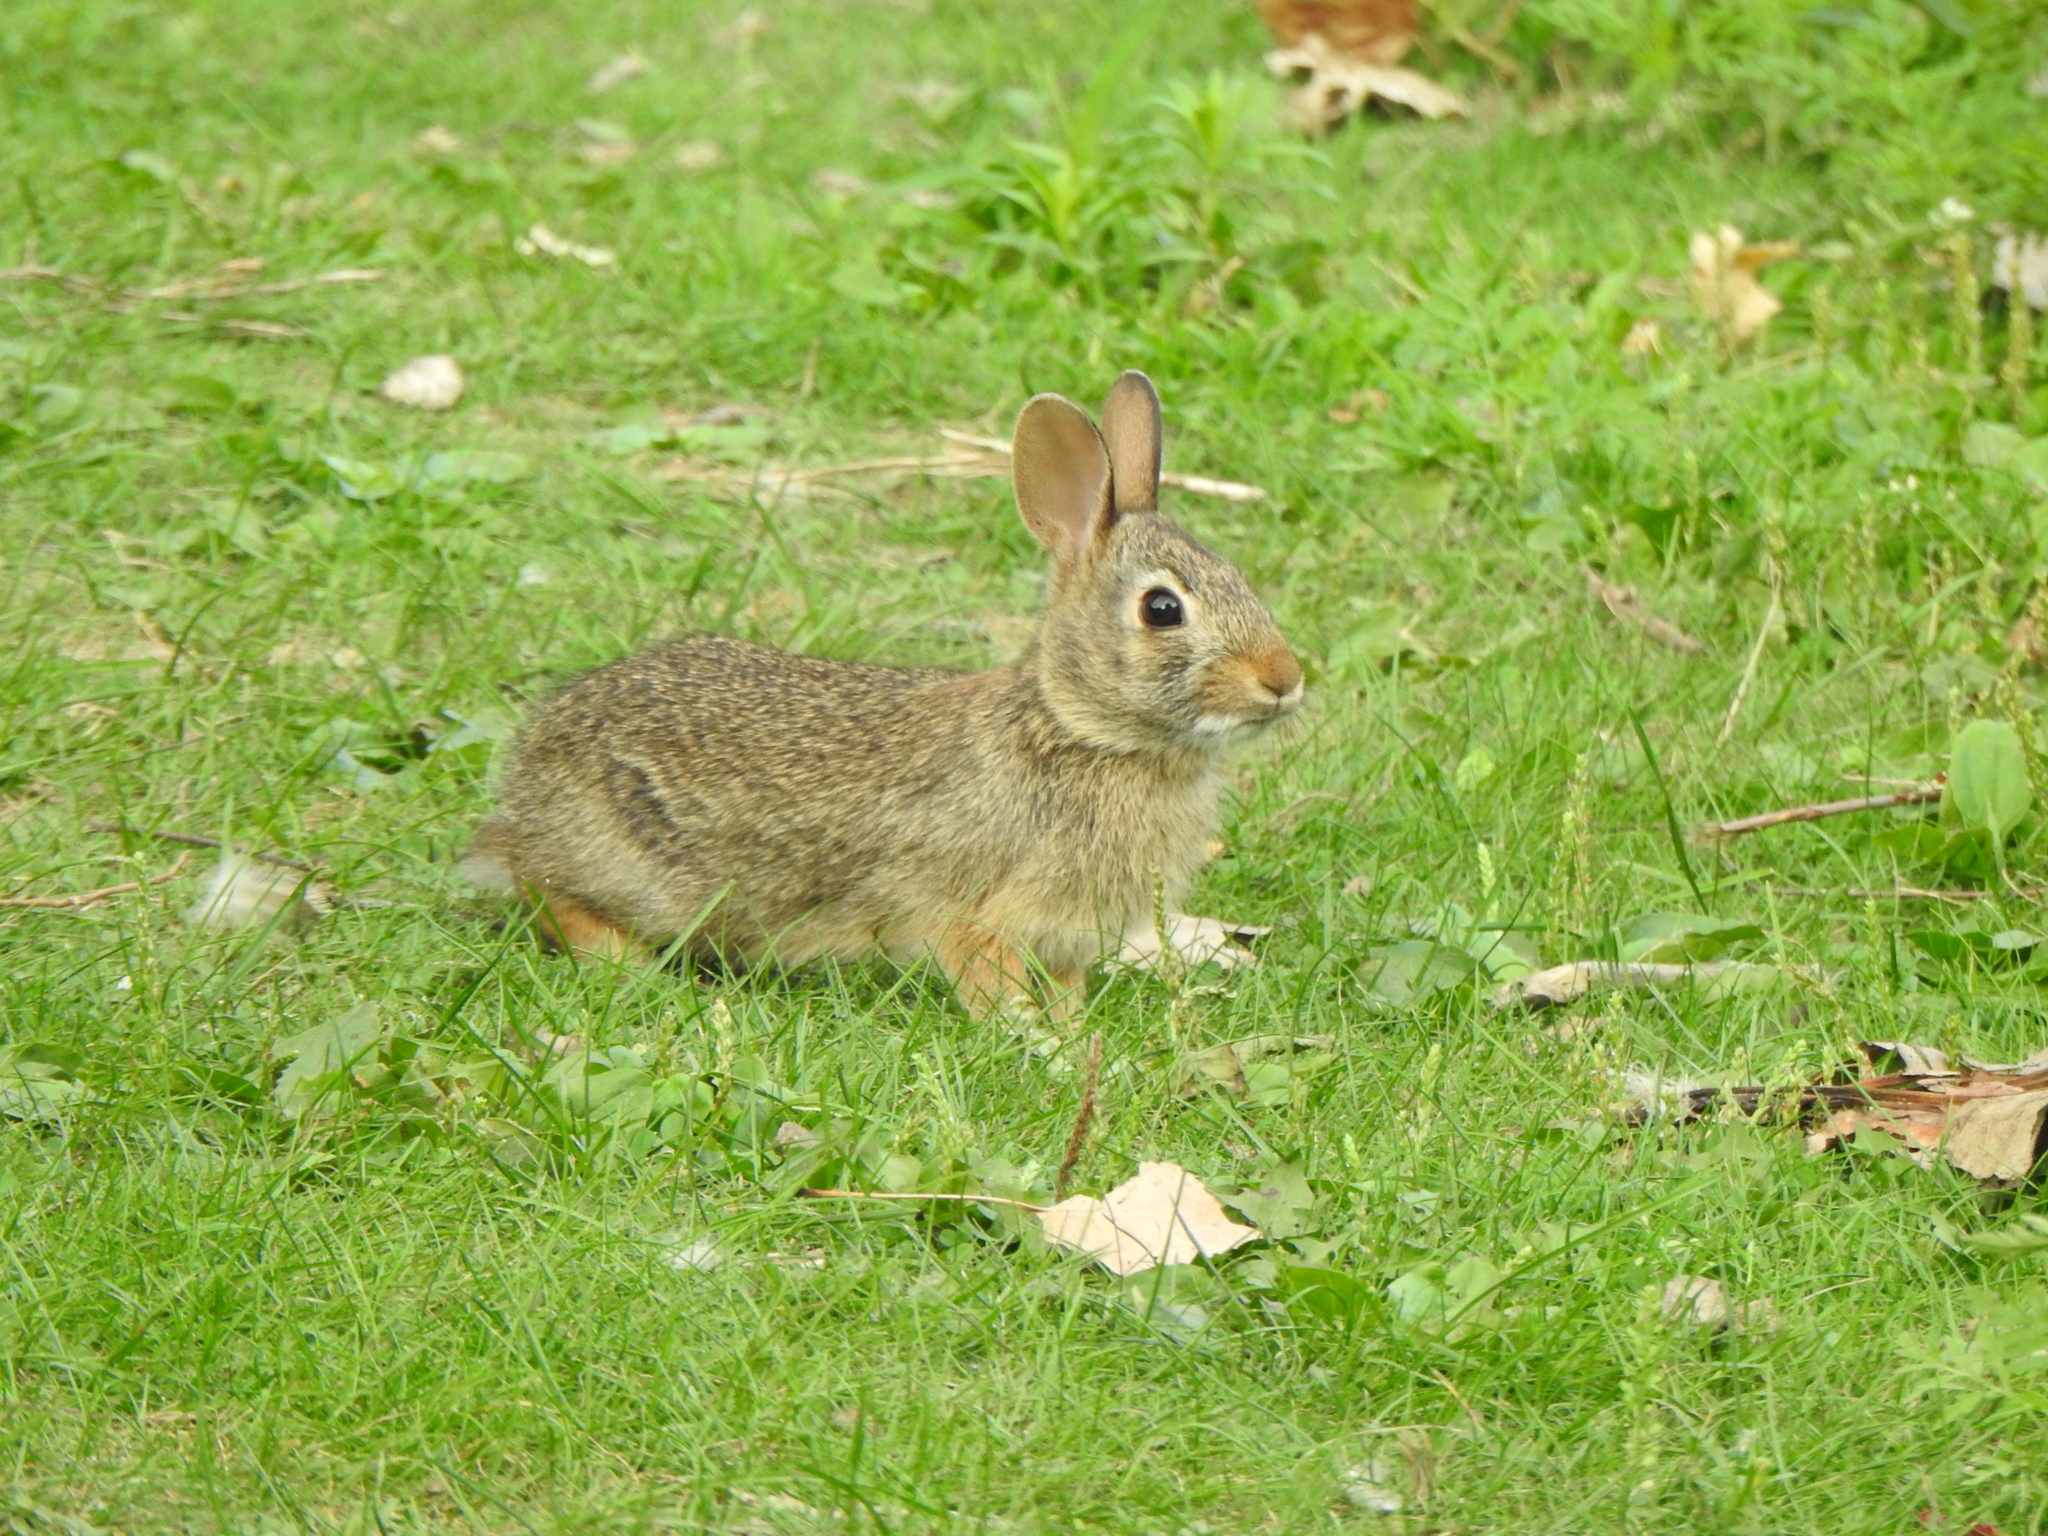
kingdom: Animalia
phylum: Chordata
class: Mammalia
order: Lagomorpha
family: Leporidae
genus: Sylvilagus
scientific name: Sylvilagus floridanus
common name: Eastern cottontail
